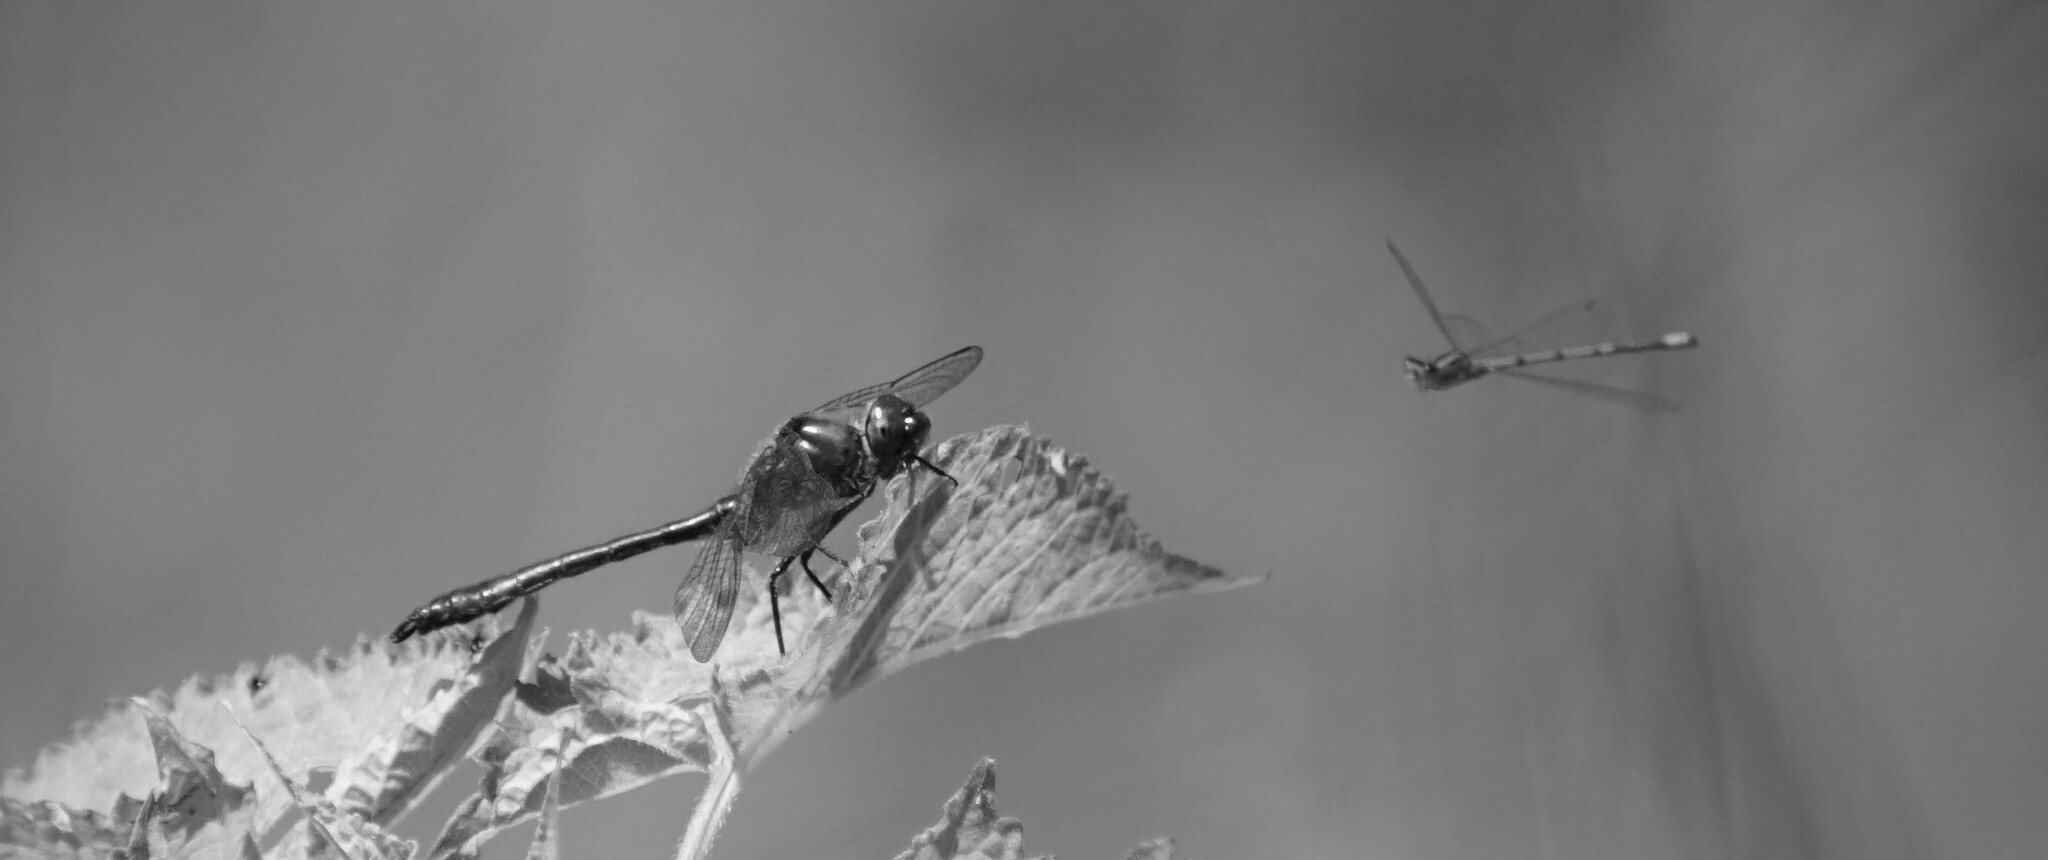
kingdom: Animalia
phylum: Arthropoda
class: Insecta
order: Odonata
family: Corduliidae
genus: Cordulia
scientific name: Cordulia aenea
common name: Downy emerald
